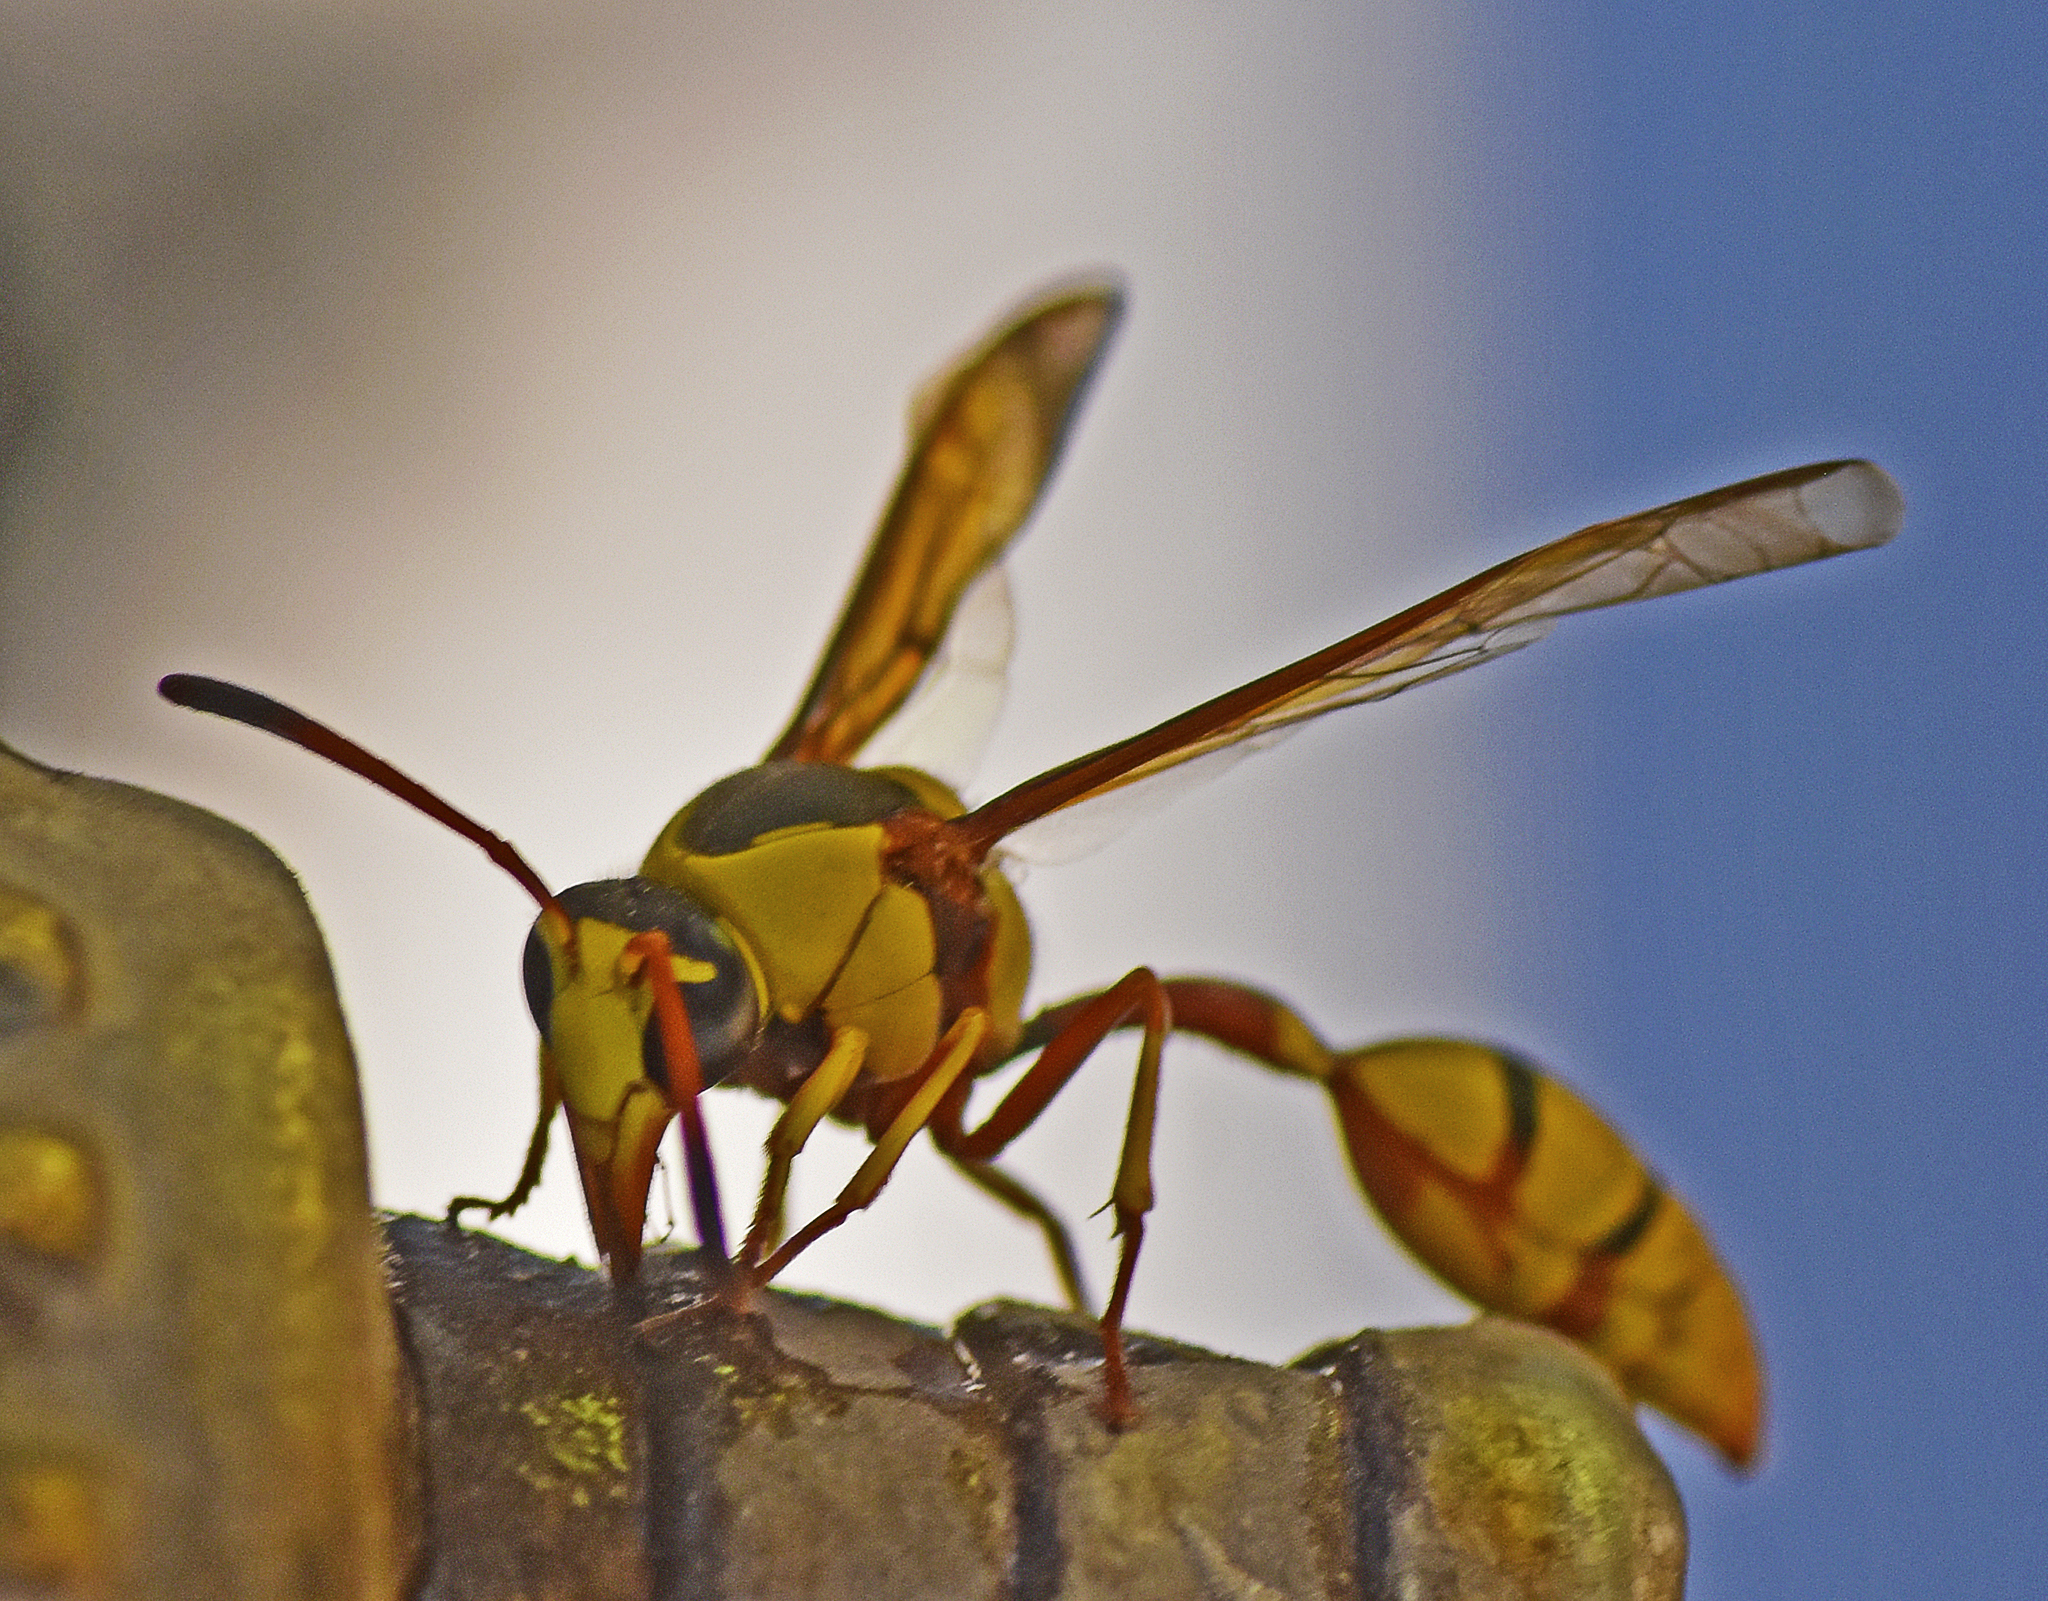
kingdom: Animalia
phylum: Arthropoda
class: Insecta
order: Hymenoptera
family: Eumenidae
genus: Delta
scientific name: Delta lepeleterii
